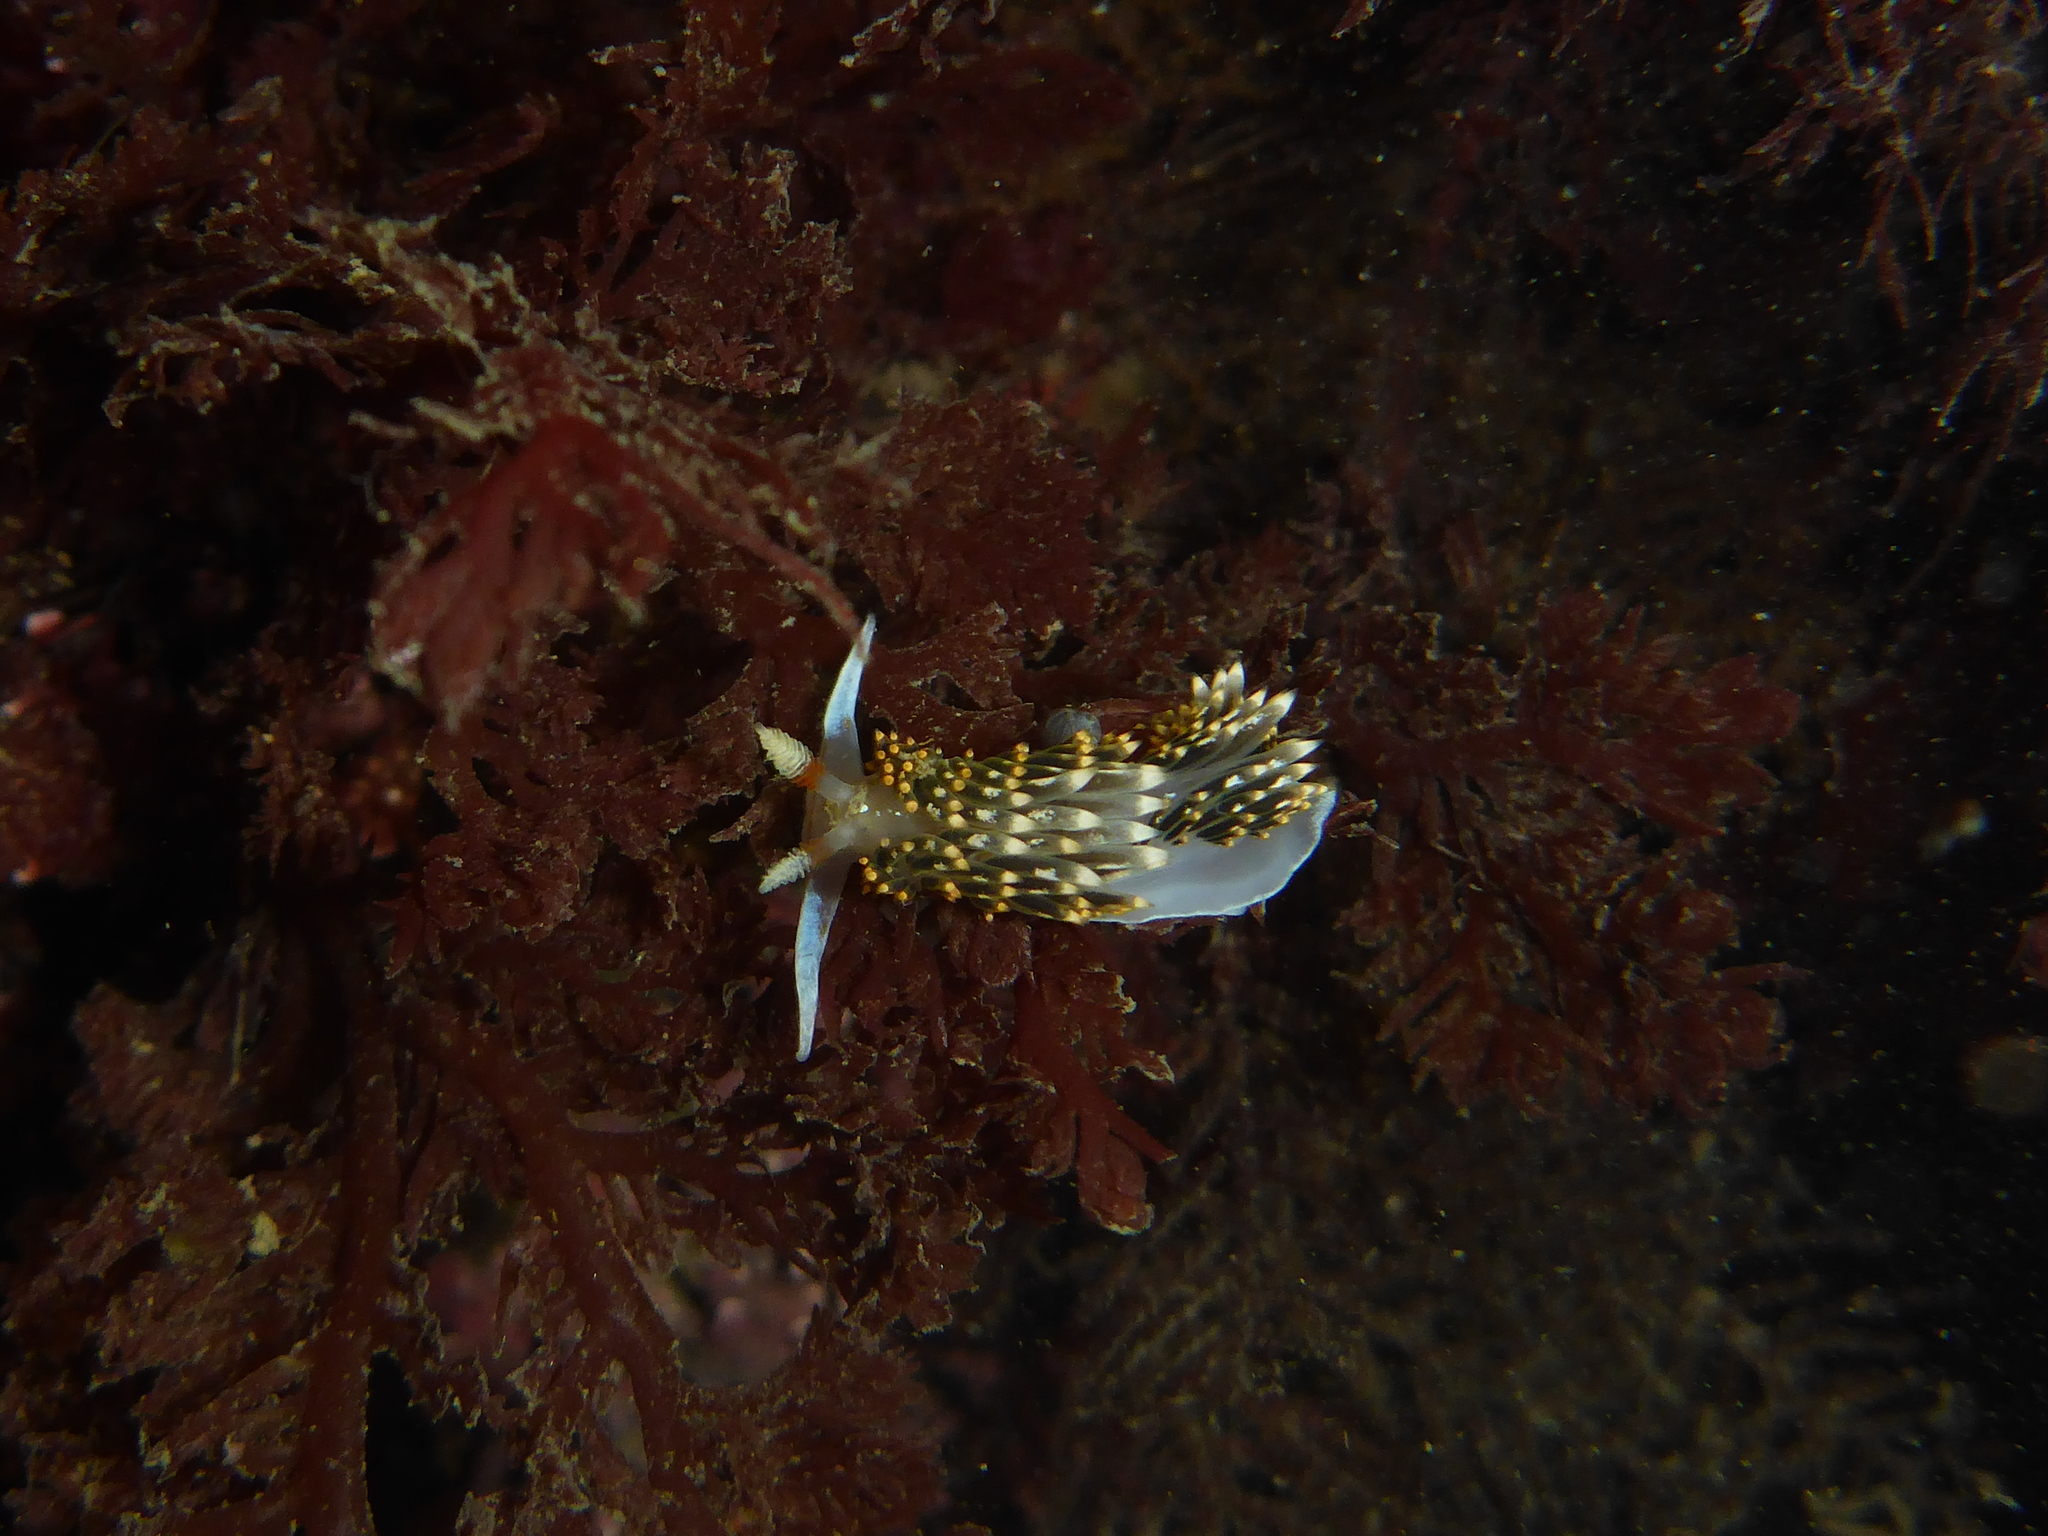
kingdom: Animalia
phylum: Mollusca
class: Gastropoda
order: Nudibranchia
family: Facelinidae
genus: Phidiana
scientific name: Phidiana hiltoni
